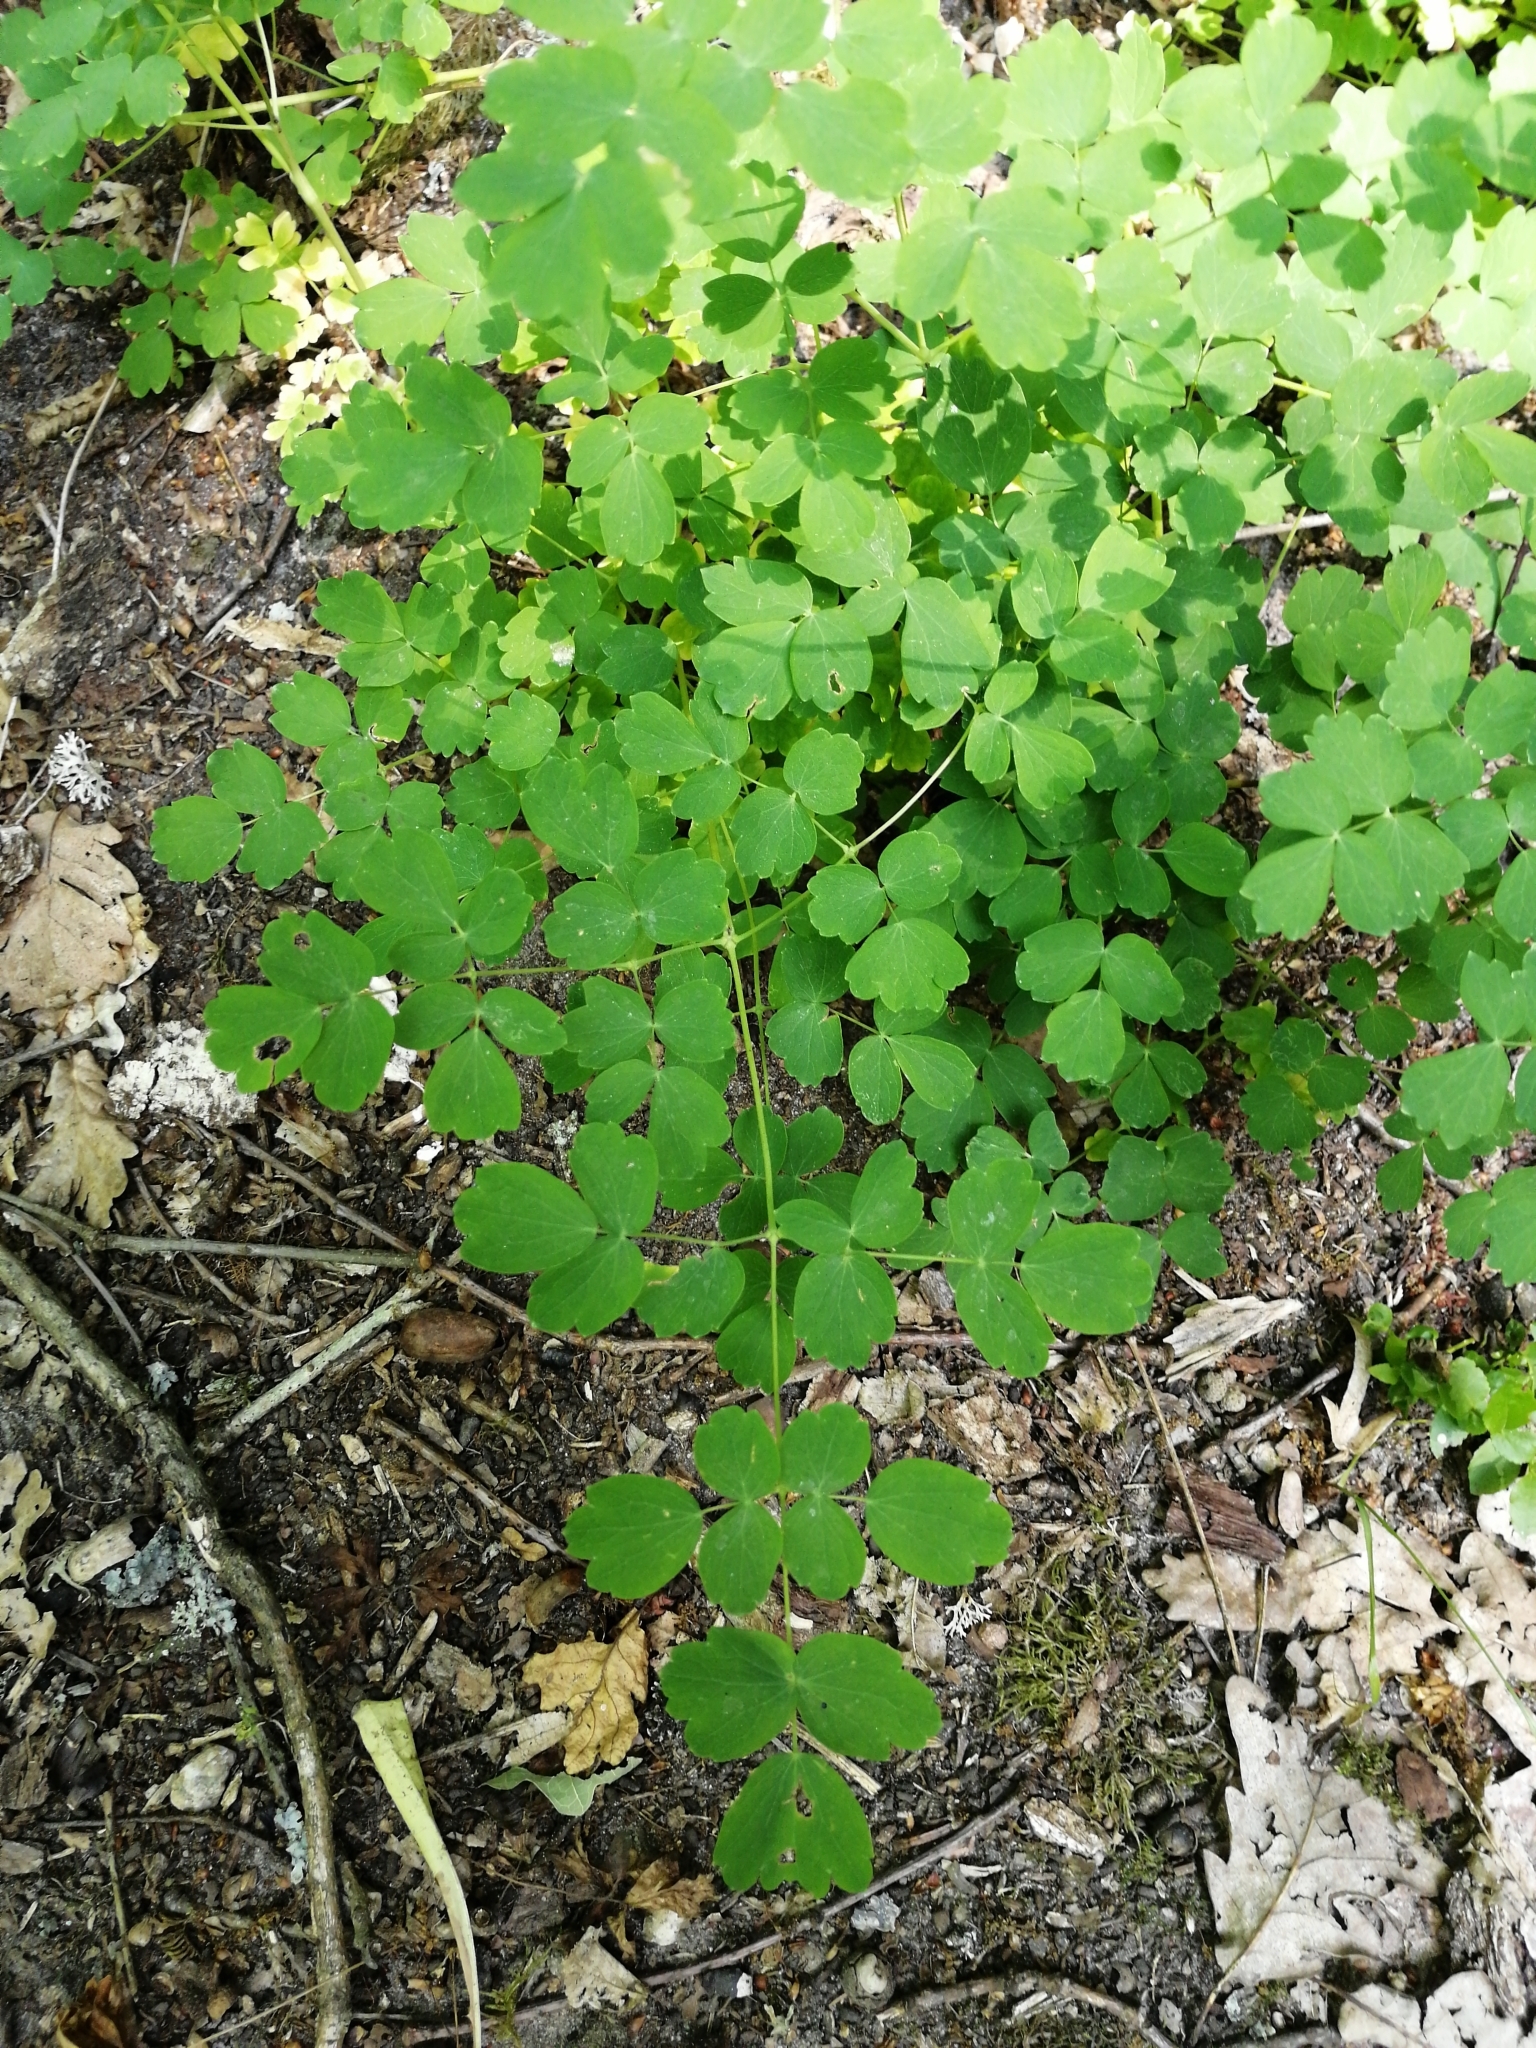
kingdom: Plantae
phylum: Tracheophyta
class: Magnoliopsida
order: Ranunculales
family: Ranunculaceae
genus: Thalictrum
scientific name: Thalictrum minus
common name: Lesser meadow-rue
